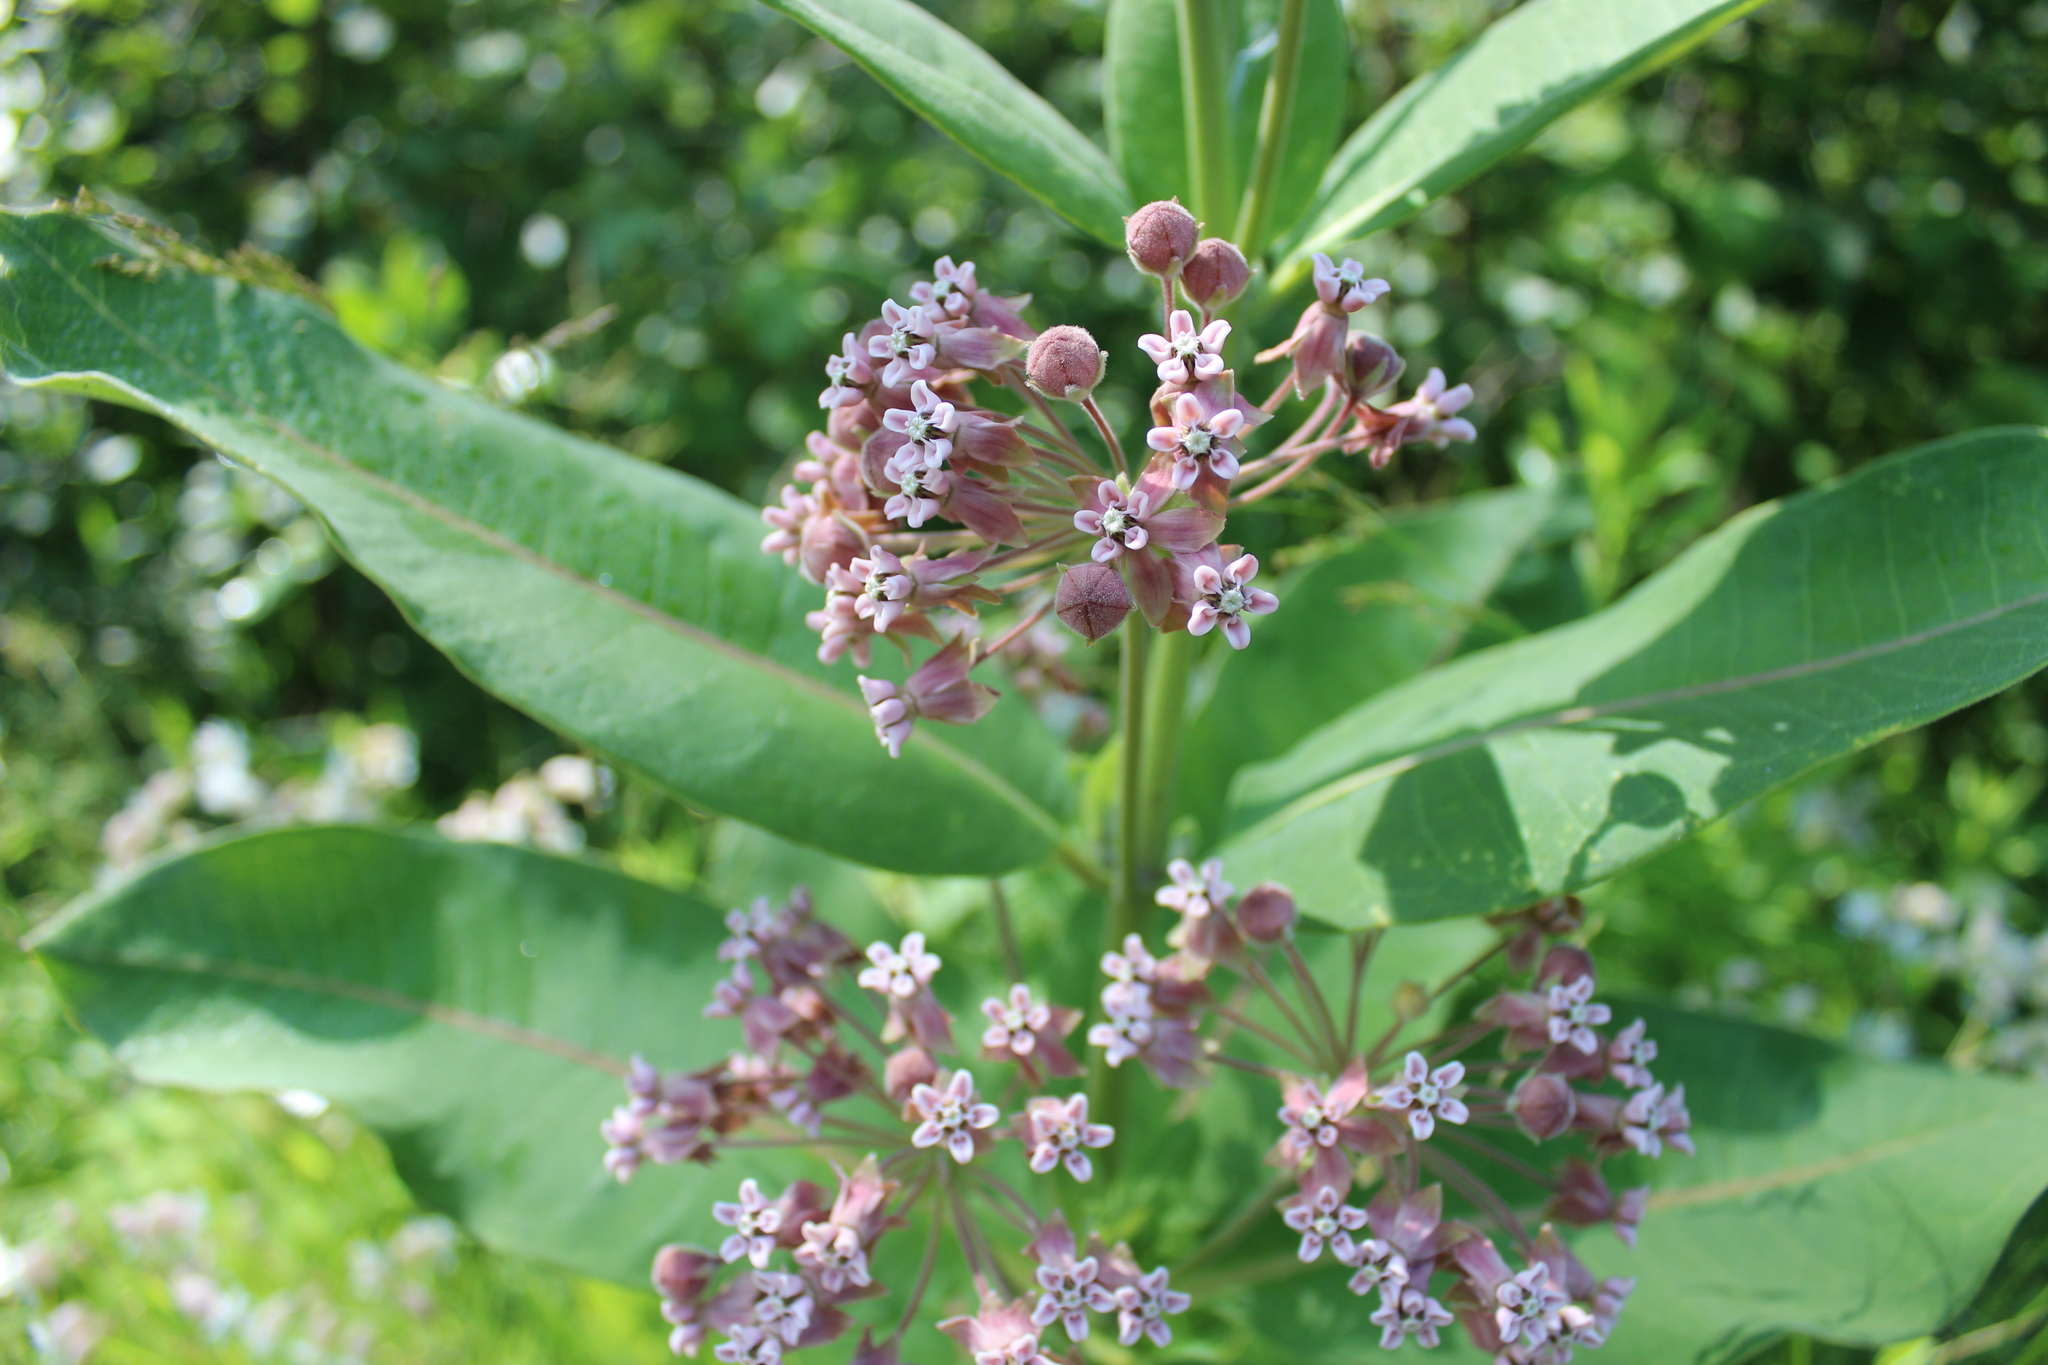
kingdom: Plantae
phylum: Tracheophyta
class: Magnoliopsida
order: Gentianales
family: Apocynaceae
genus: Asclepias
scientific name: Asclepias syriaca
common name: Common milkweed
